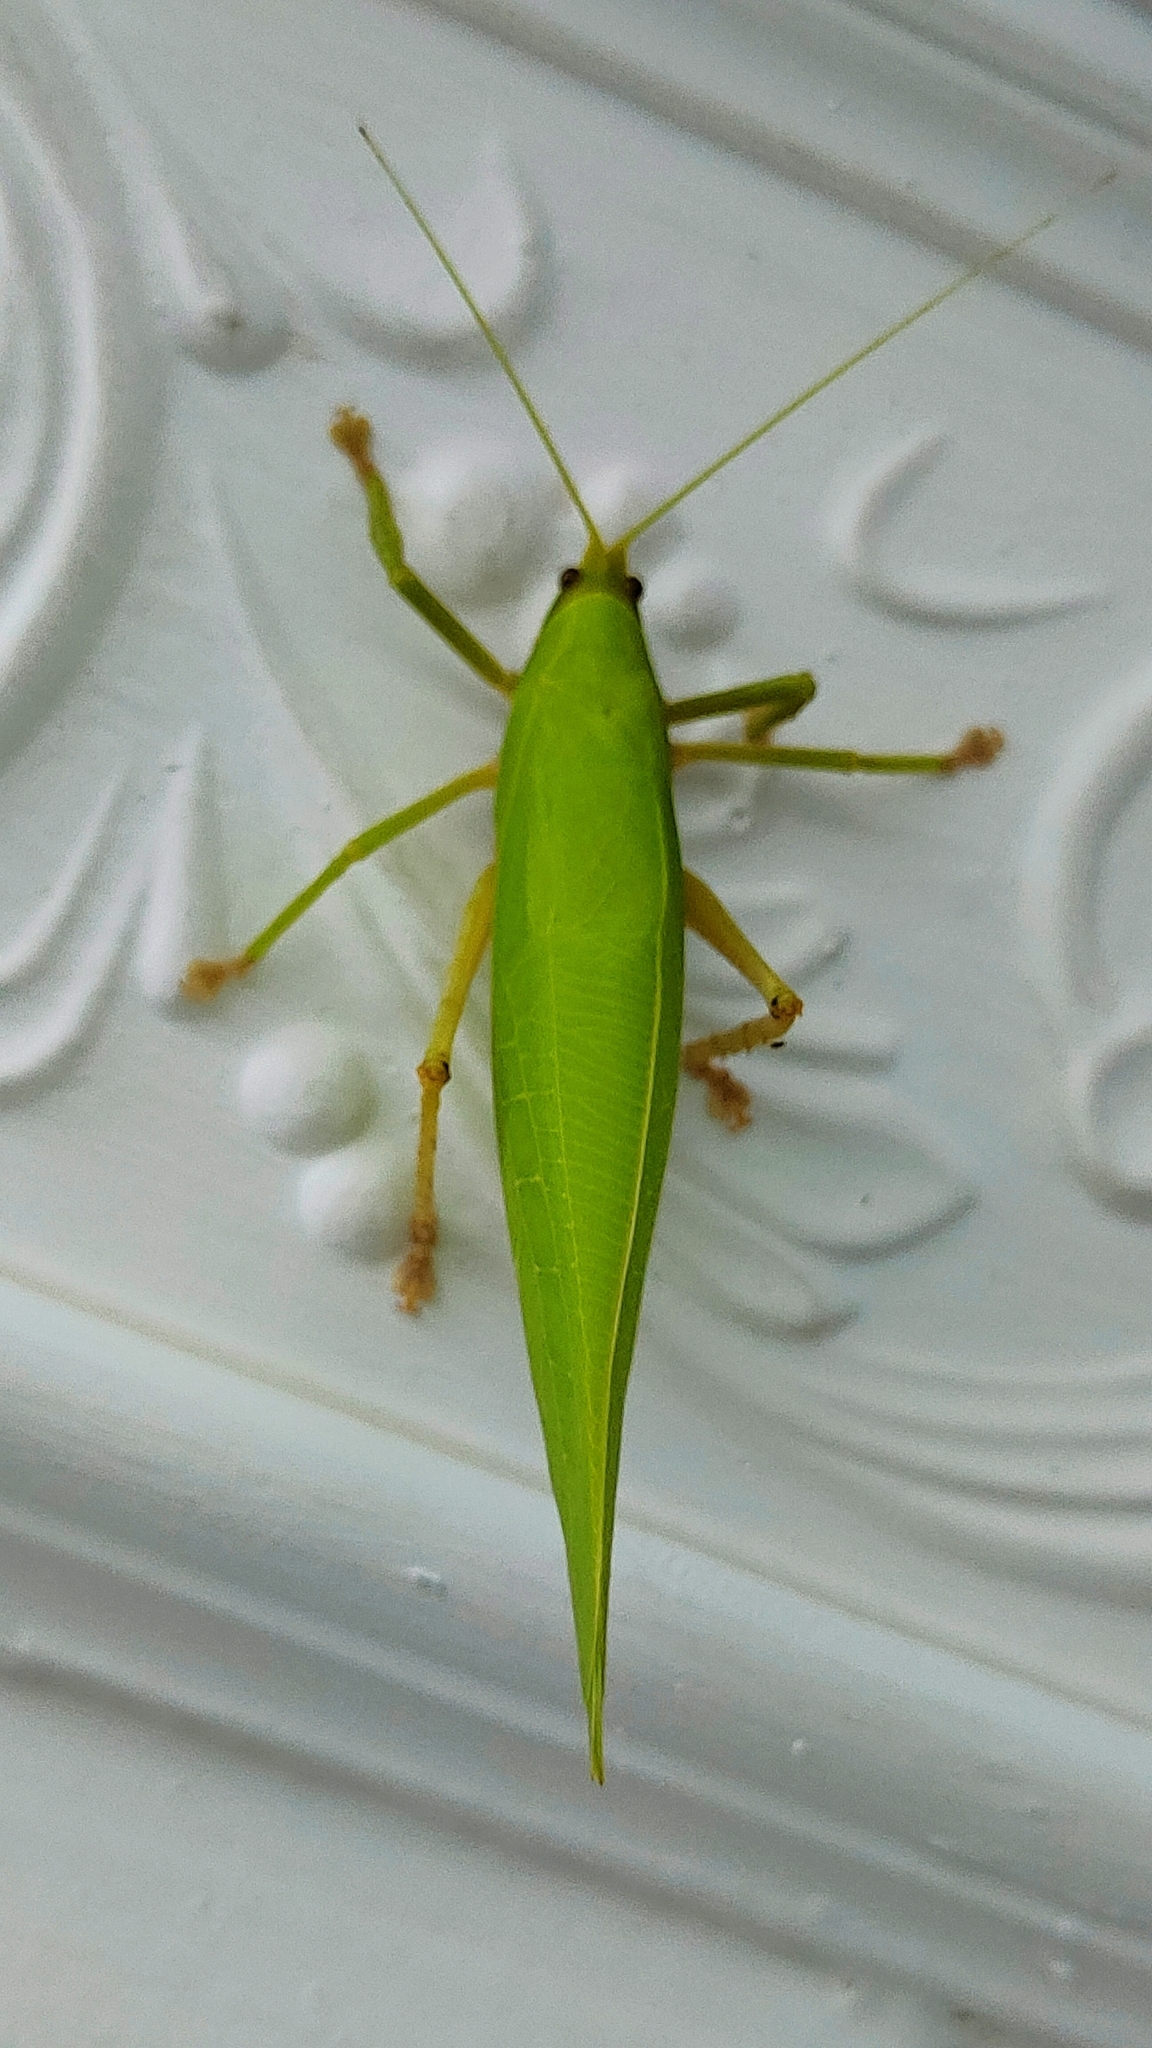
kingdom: Animalia
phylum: Arthropoda
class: Insecta
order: Orthoptera
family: Tettigoniidae
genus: Onomarchus
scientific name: Onomarchus uninotatus
